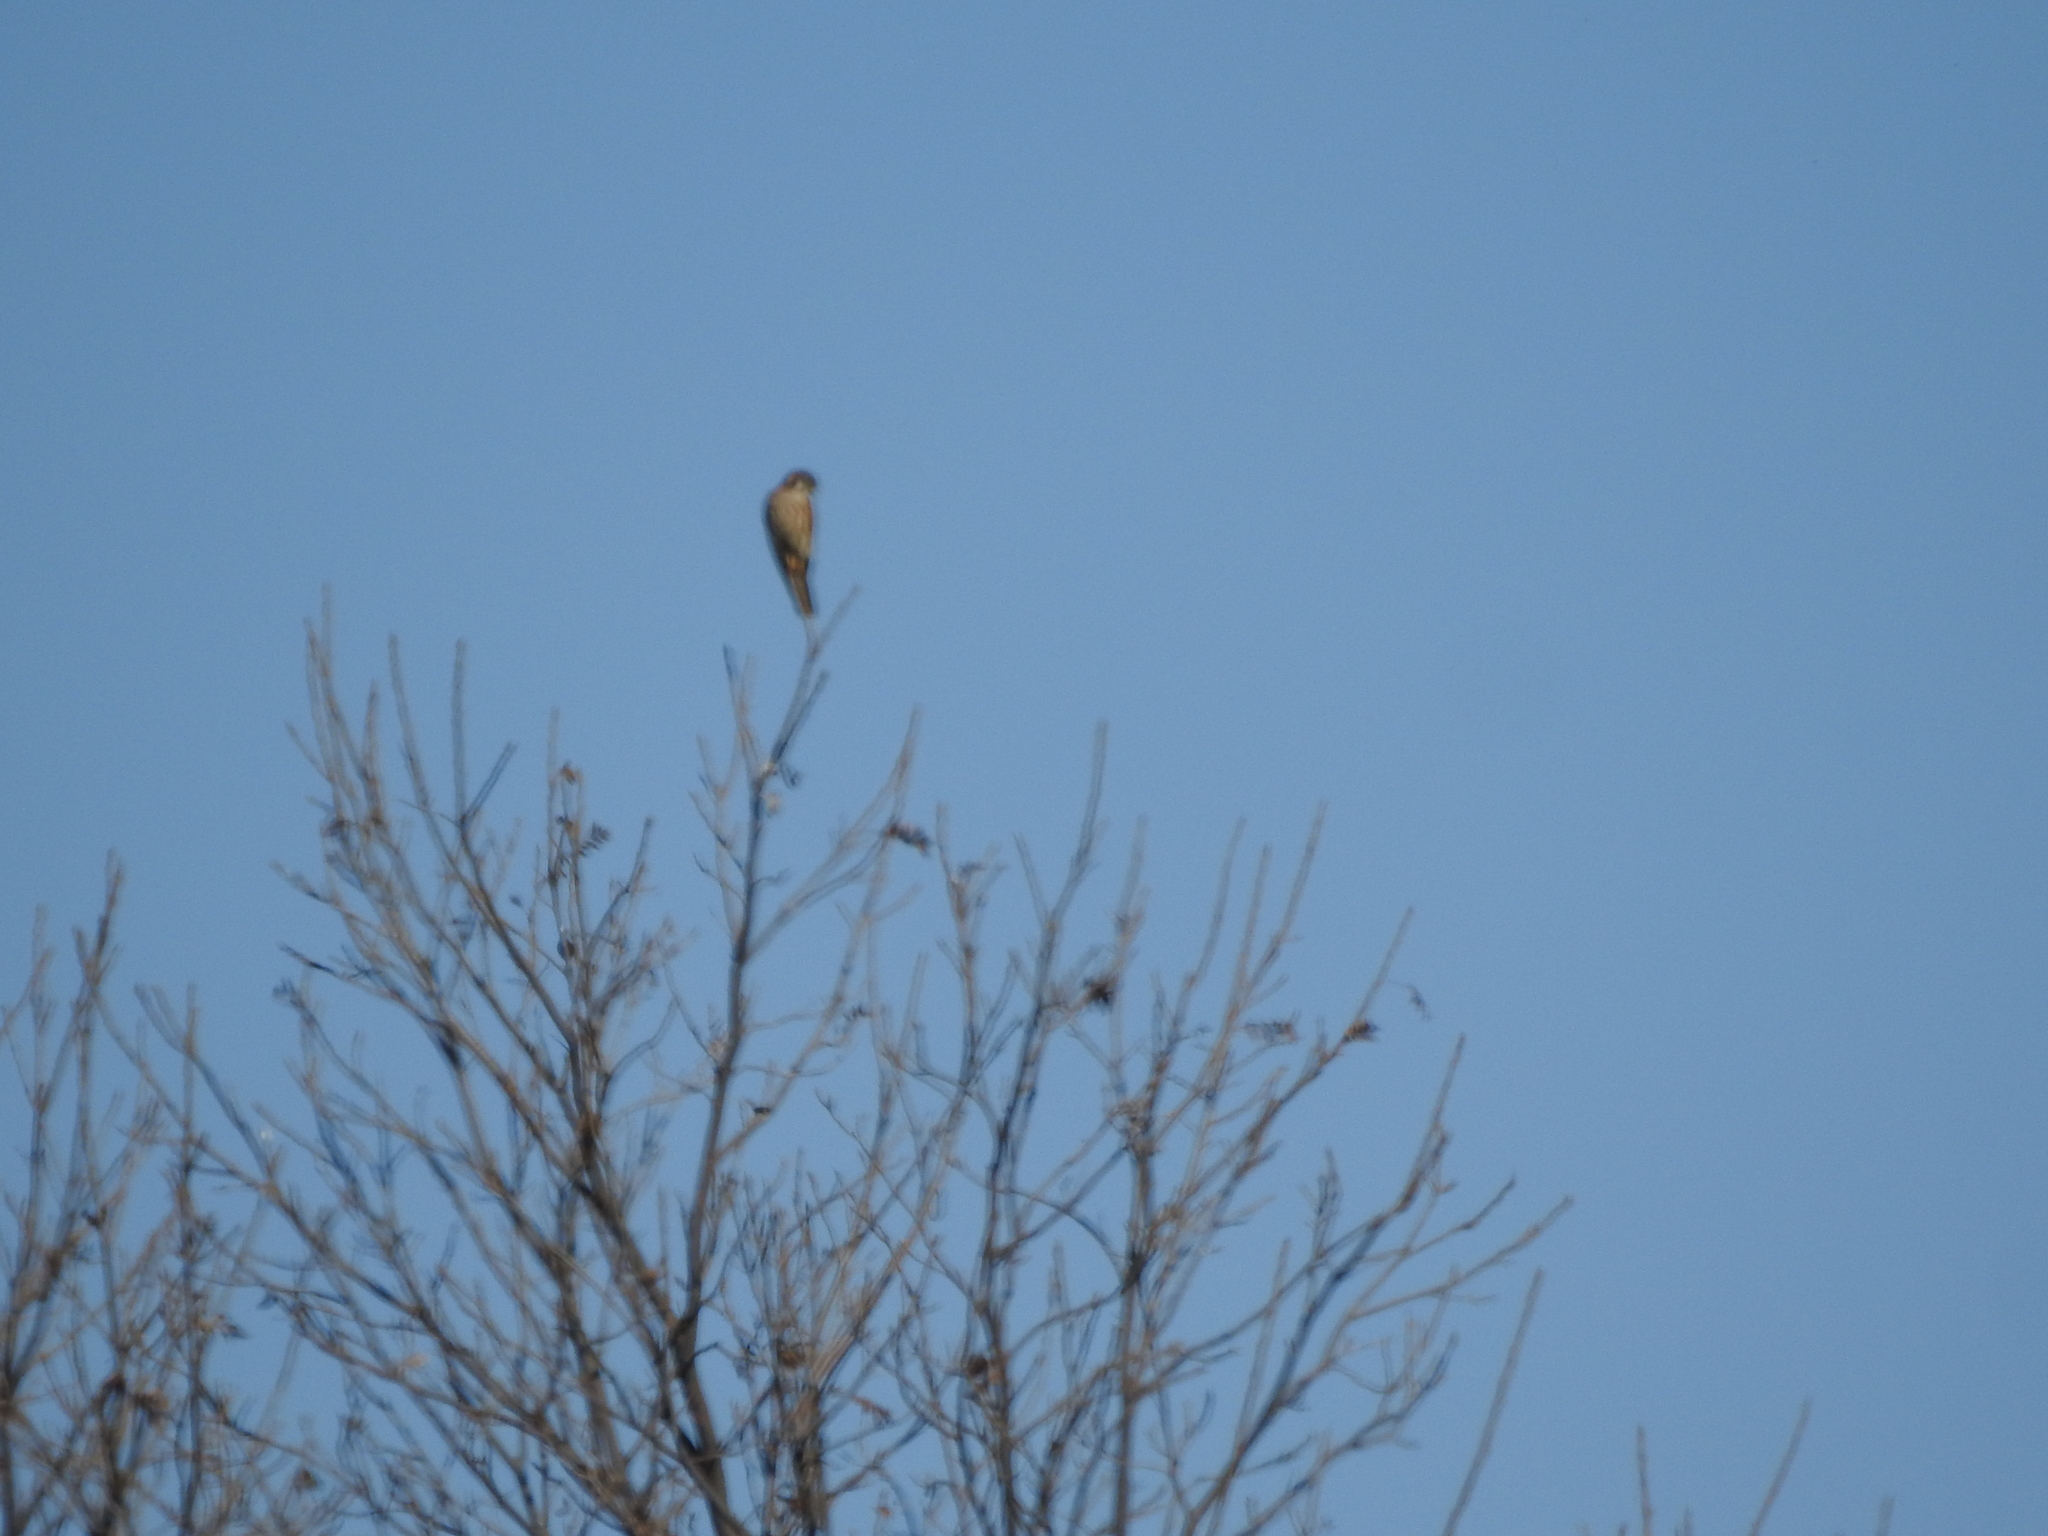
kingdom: Animalia
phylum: Chordata
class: Aves
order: Falconiformes
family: Falconidae
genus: Falco
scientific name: Falco sparverius
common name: American kestrel
